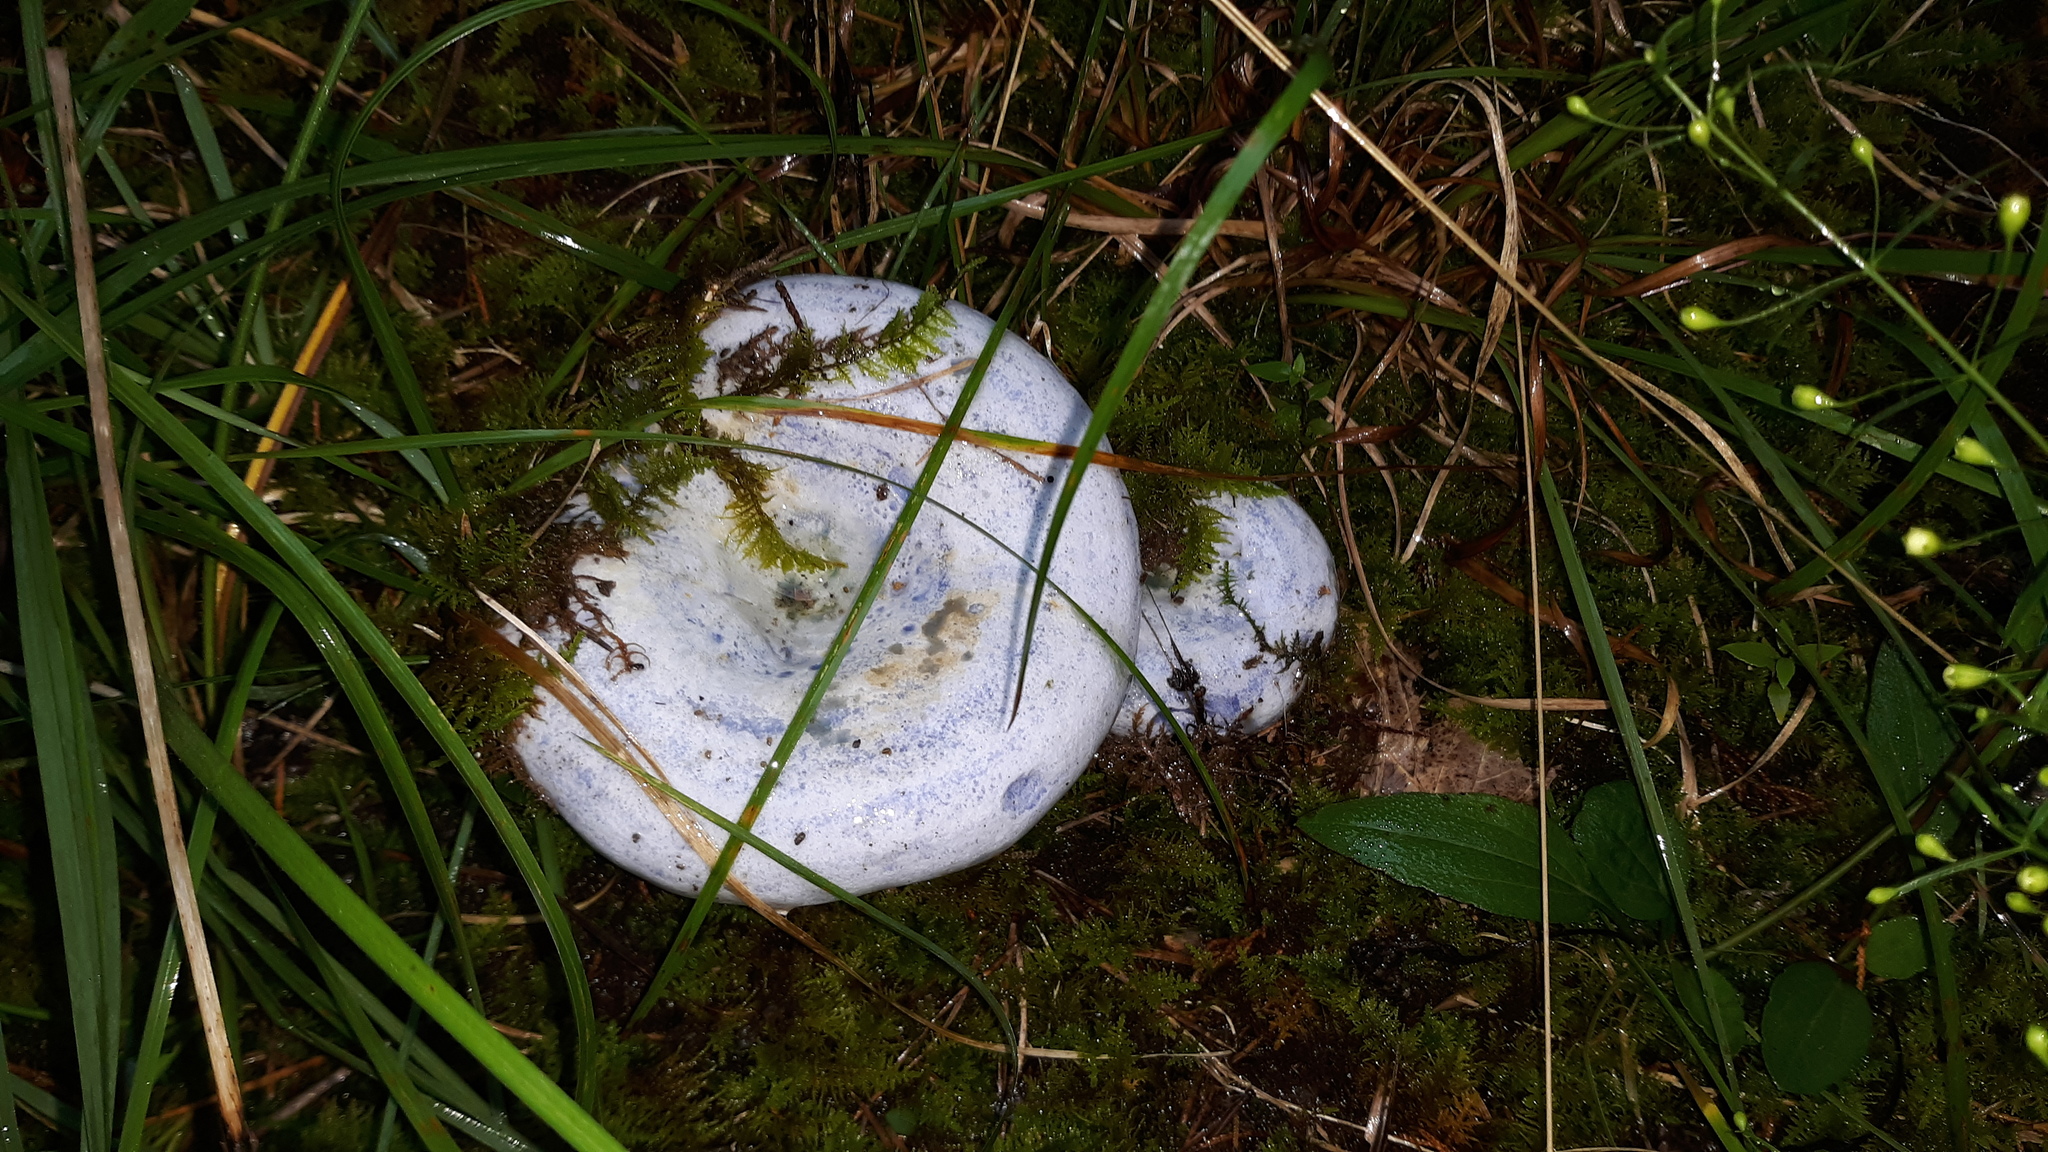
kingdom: Fungi
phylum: Basidiomycota
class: Agaricomycetes
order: Russulales
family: Russulaceae
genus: Lactarius
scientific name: Lactarius indigo
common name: Indigo milk cap
